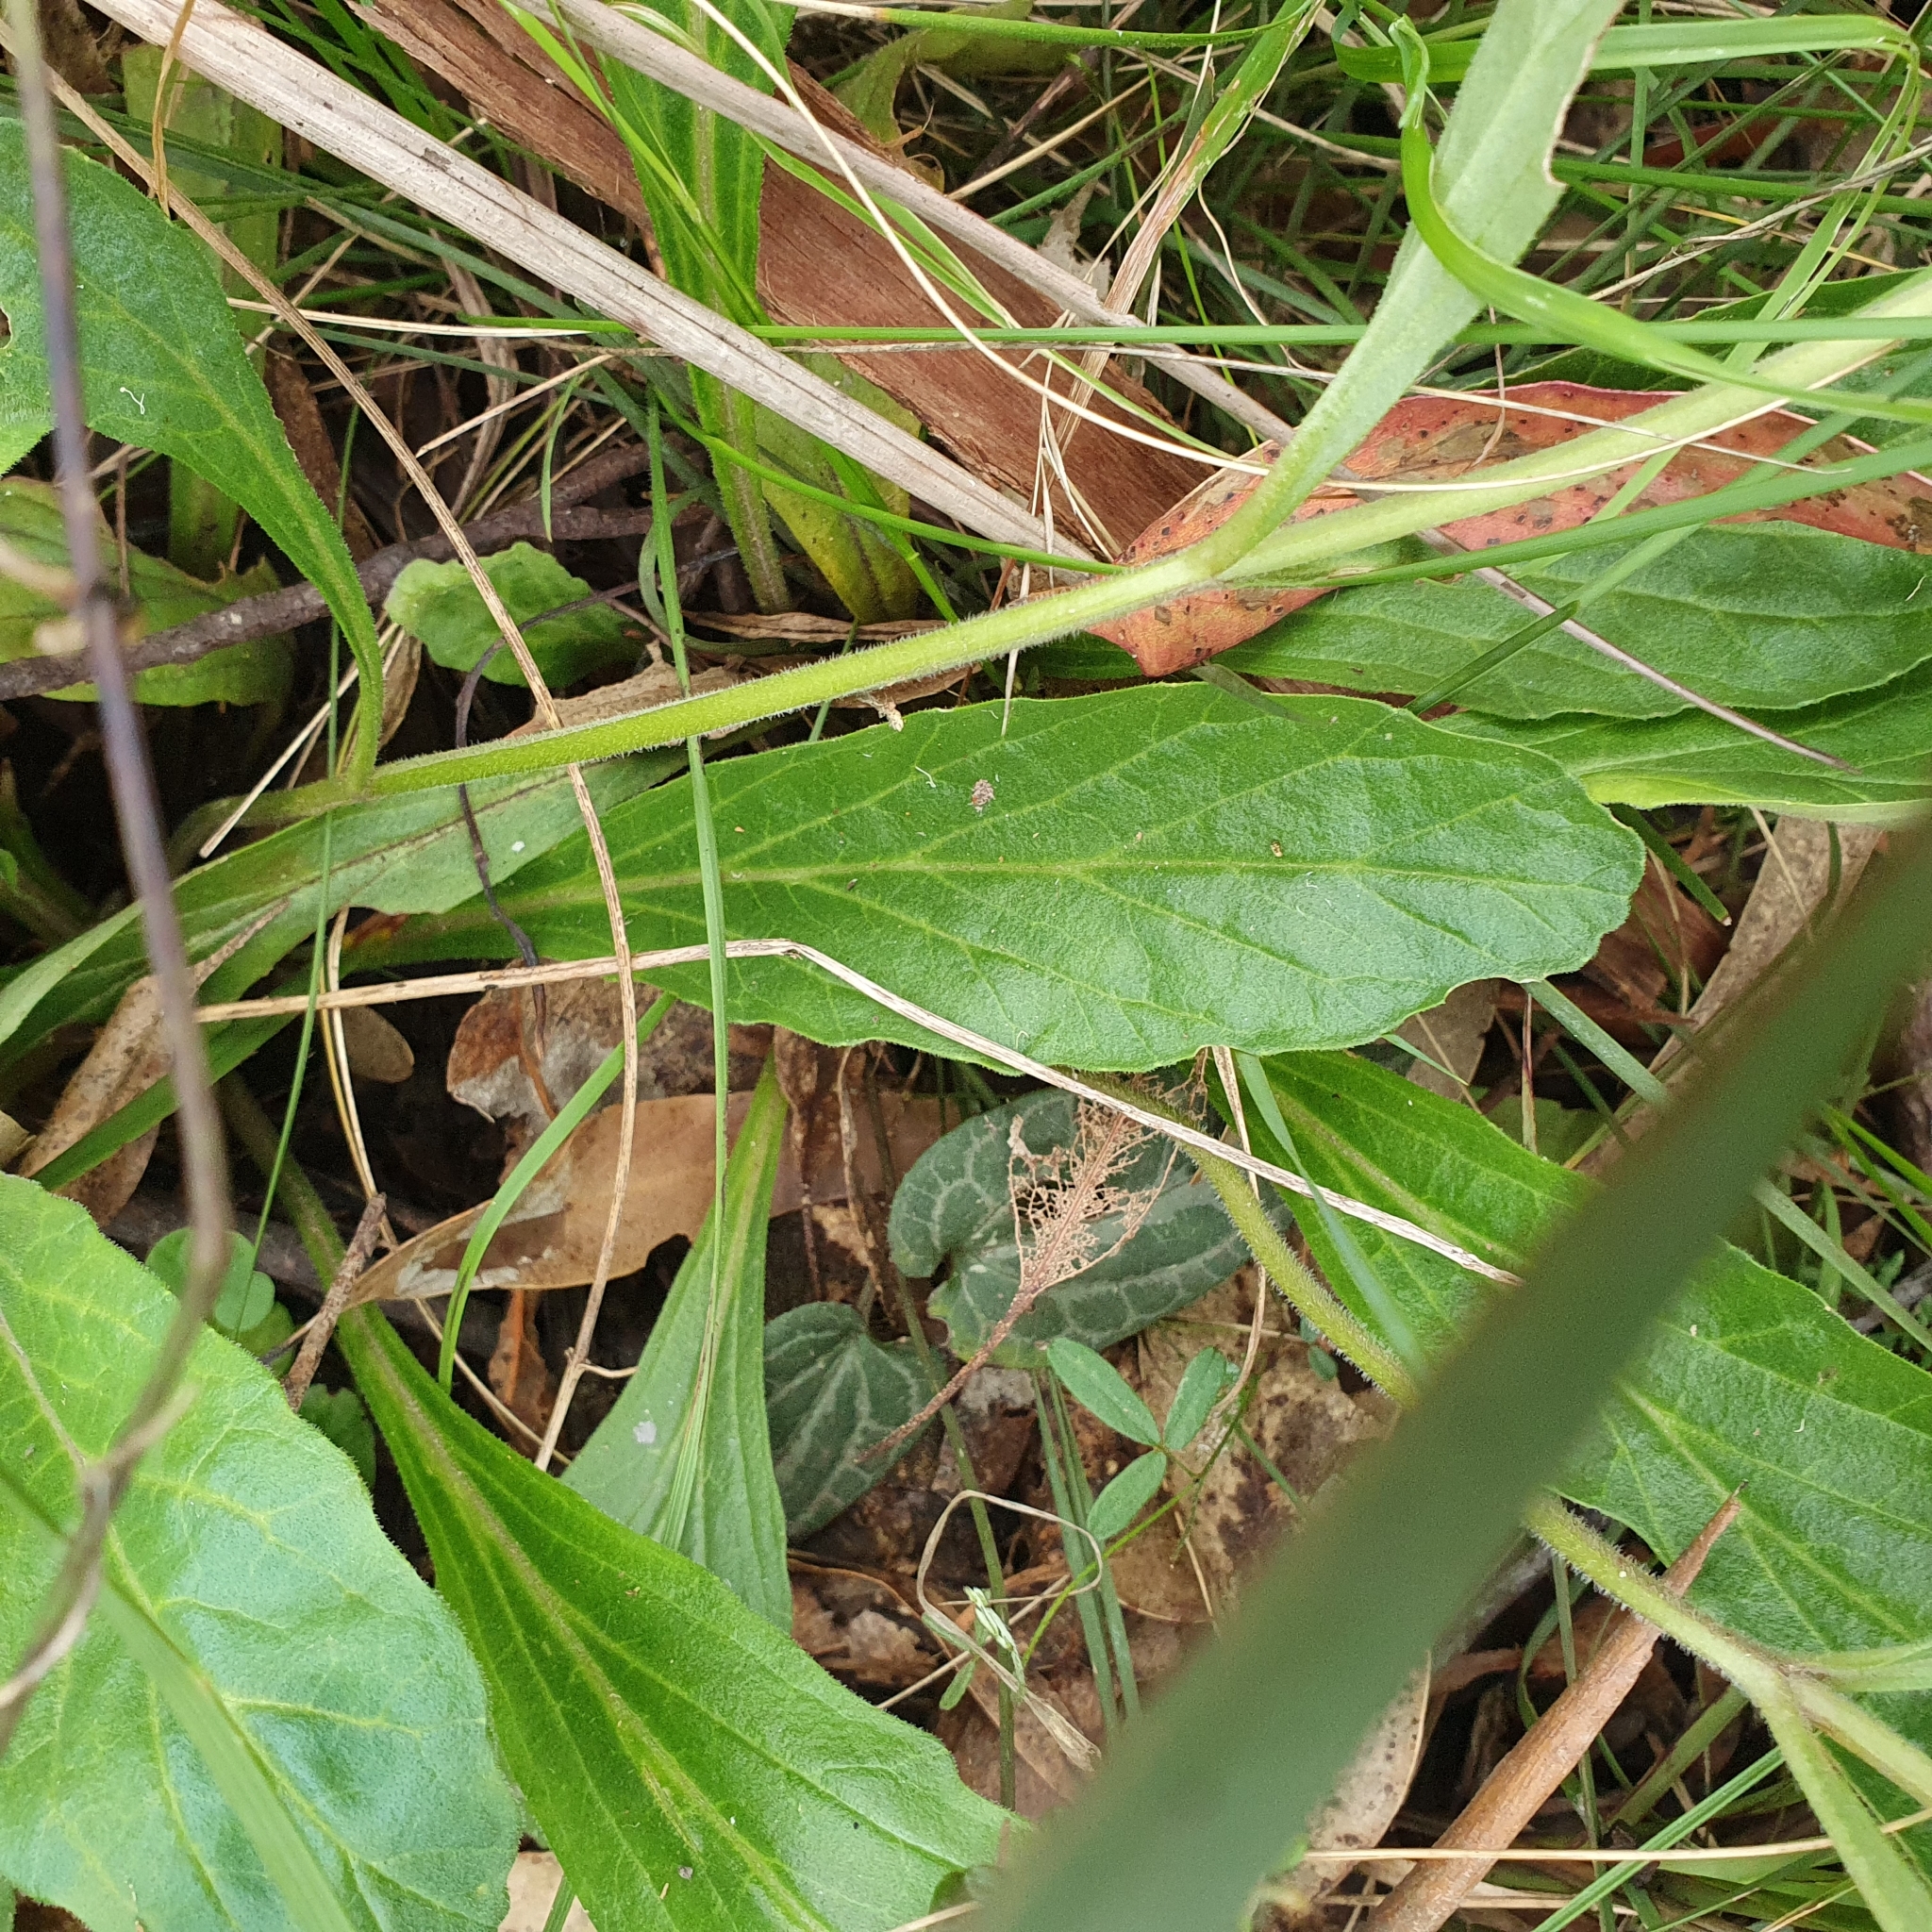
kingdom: Plantae
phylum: Tracheophyta
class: Magnoliopsida
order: Lamiales
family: Lamiaceae
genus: Ajuga
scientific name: Ajuga australis
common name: Australian bugle
